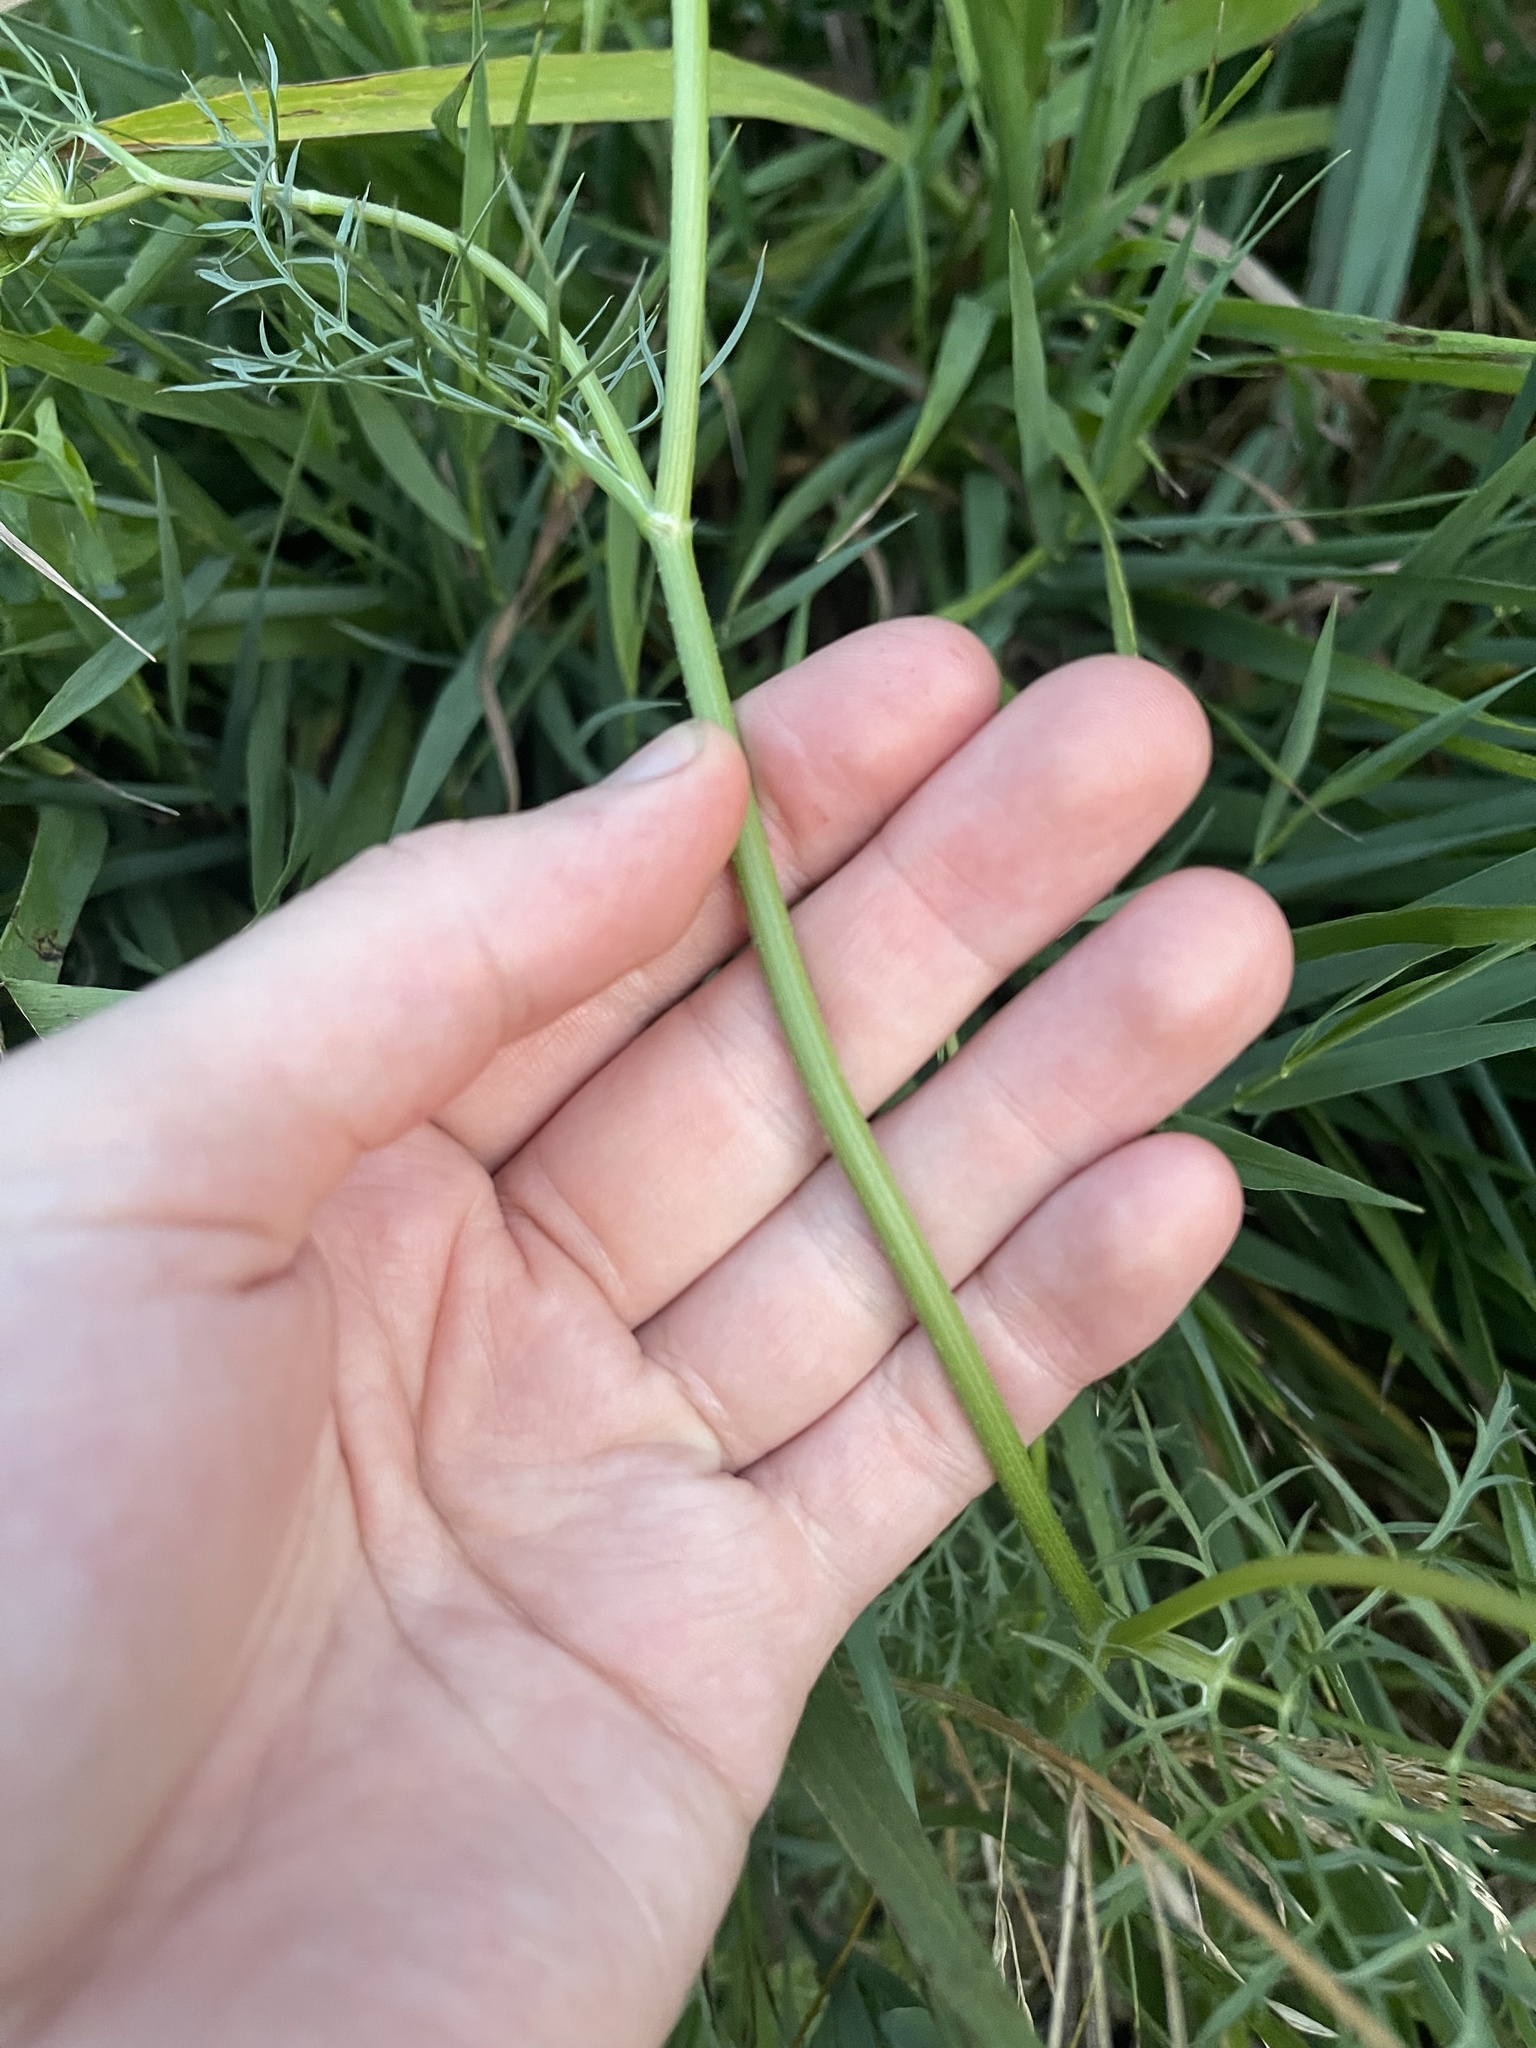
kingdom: Plantae
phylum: Tracheophyta
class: Magnoliopsida
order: Apiales
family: Apiaceae
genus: Daucus
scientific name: Daucus carota
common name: Wild carrot
